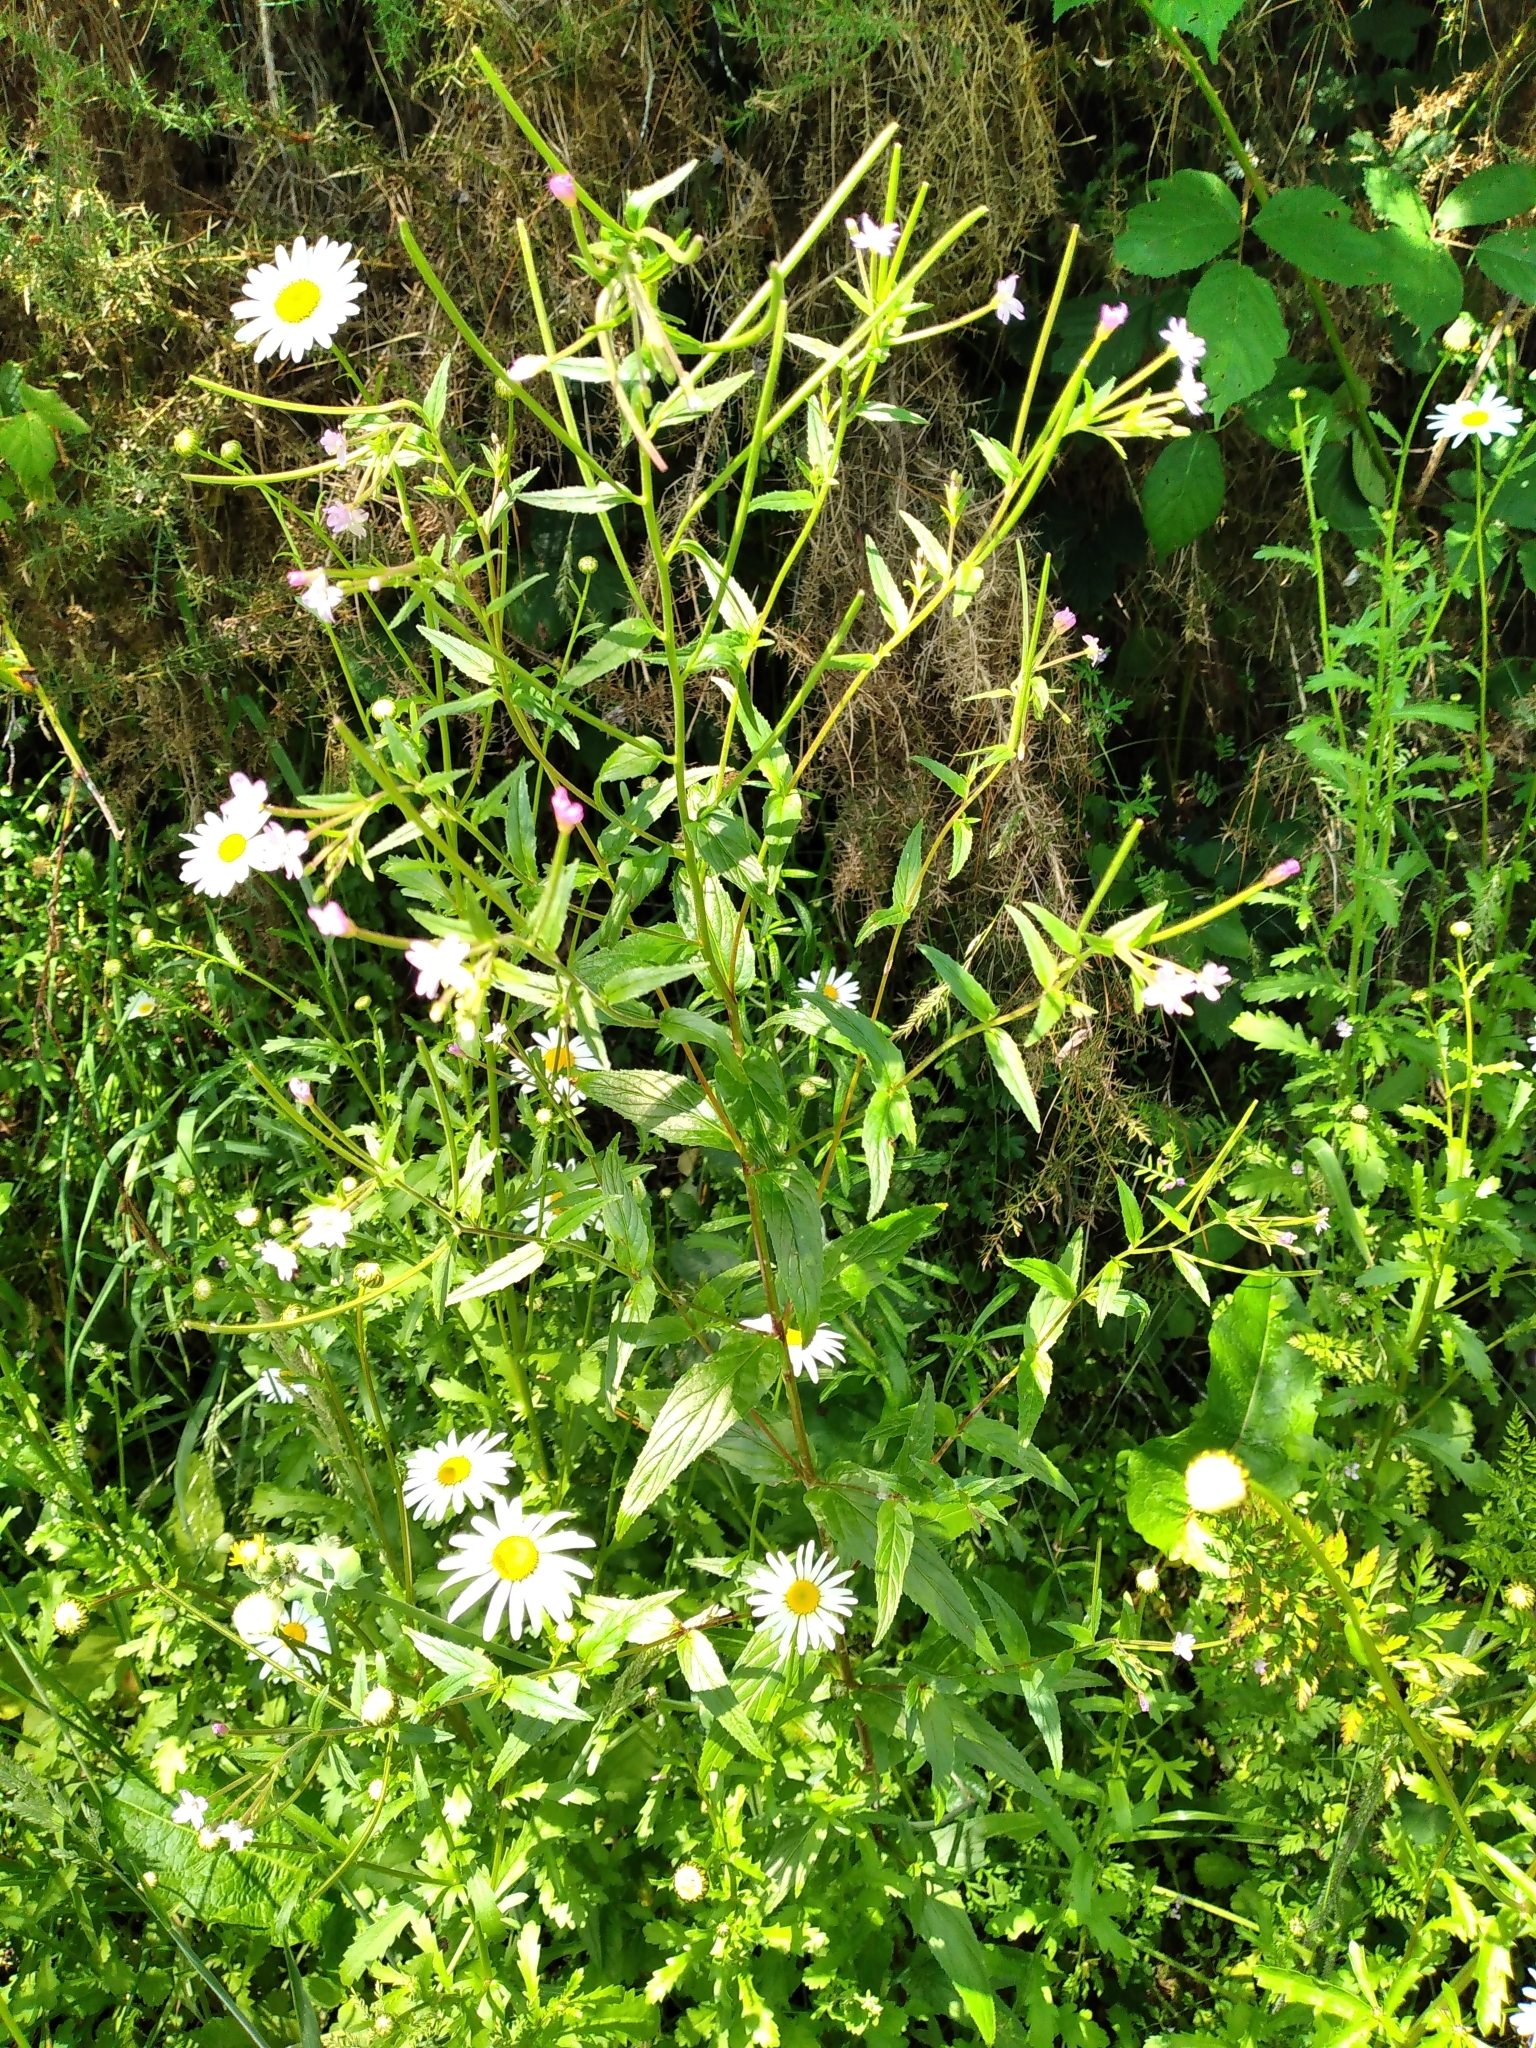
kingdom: Plantae
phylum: Tracheophyta
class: Magnoliopsida
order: Myrtales
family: Onagraceae
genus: Epilobium
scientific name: Epilobium ciliatum
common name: American willowherb
